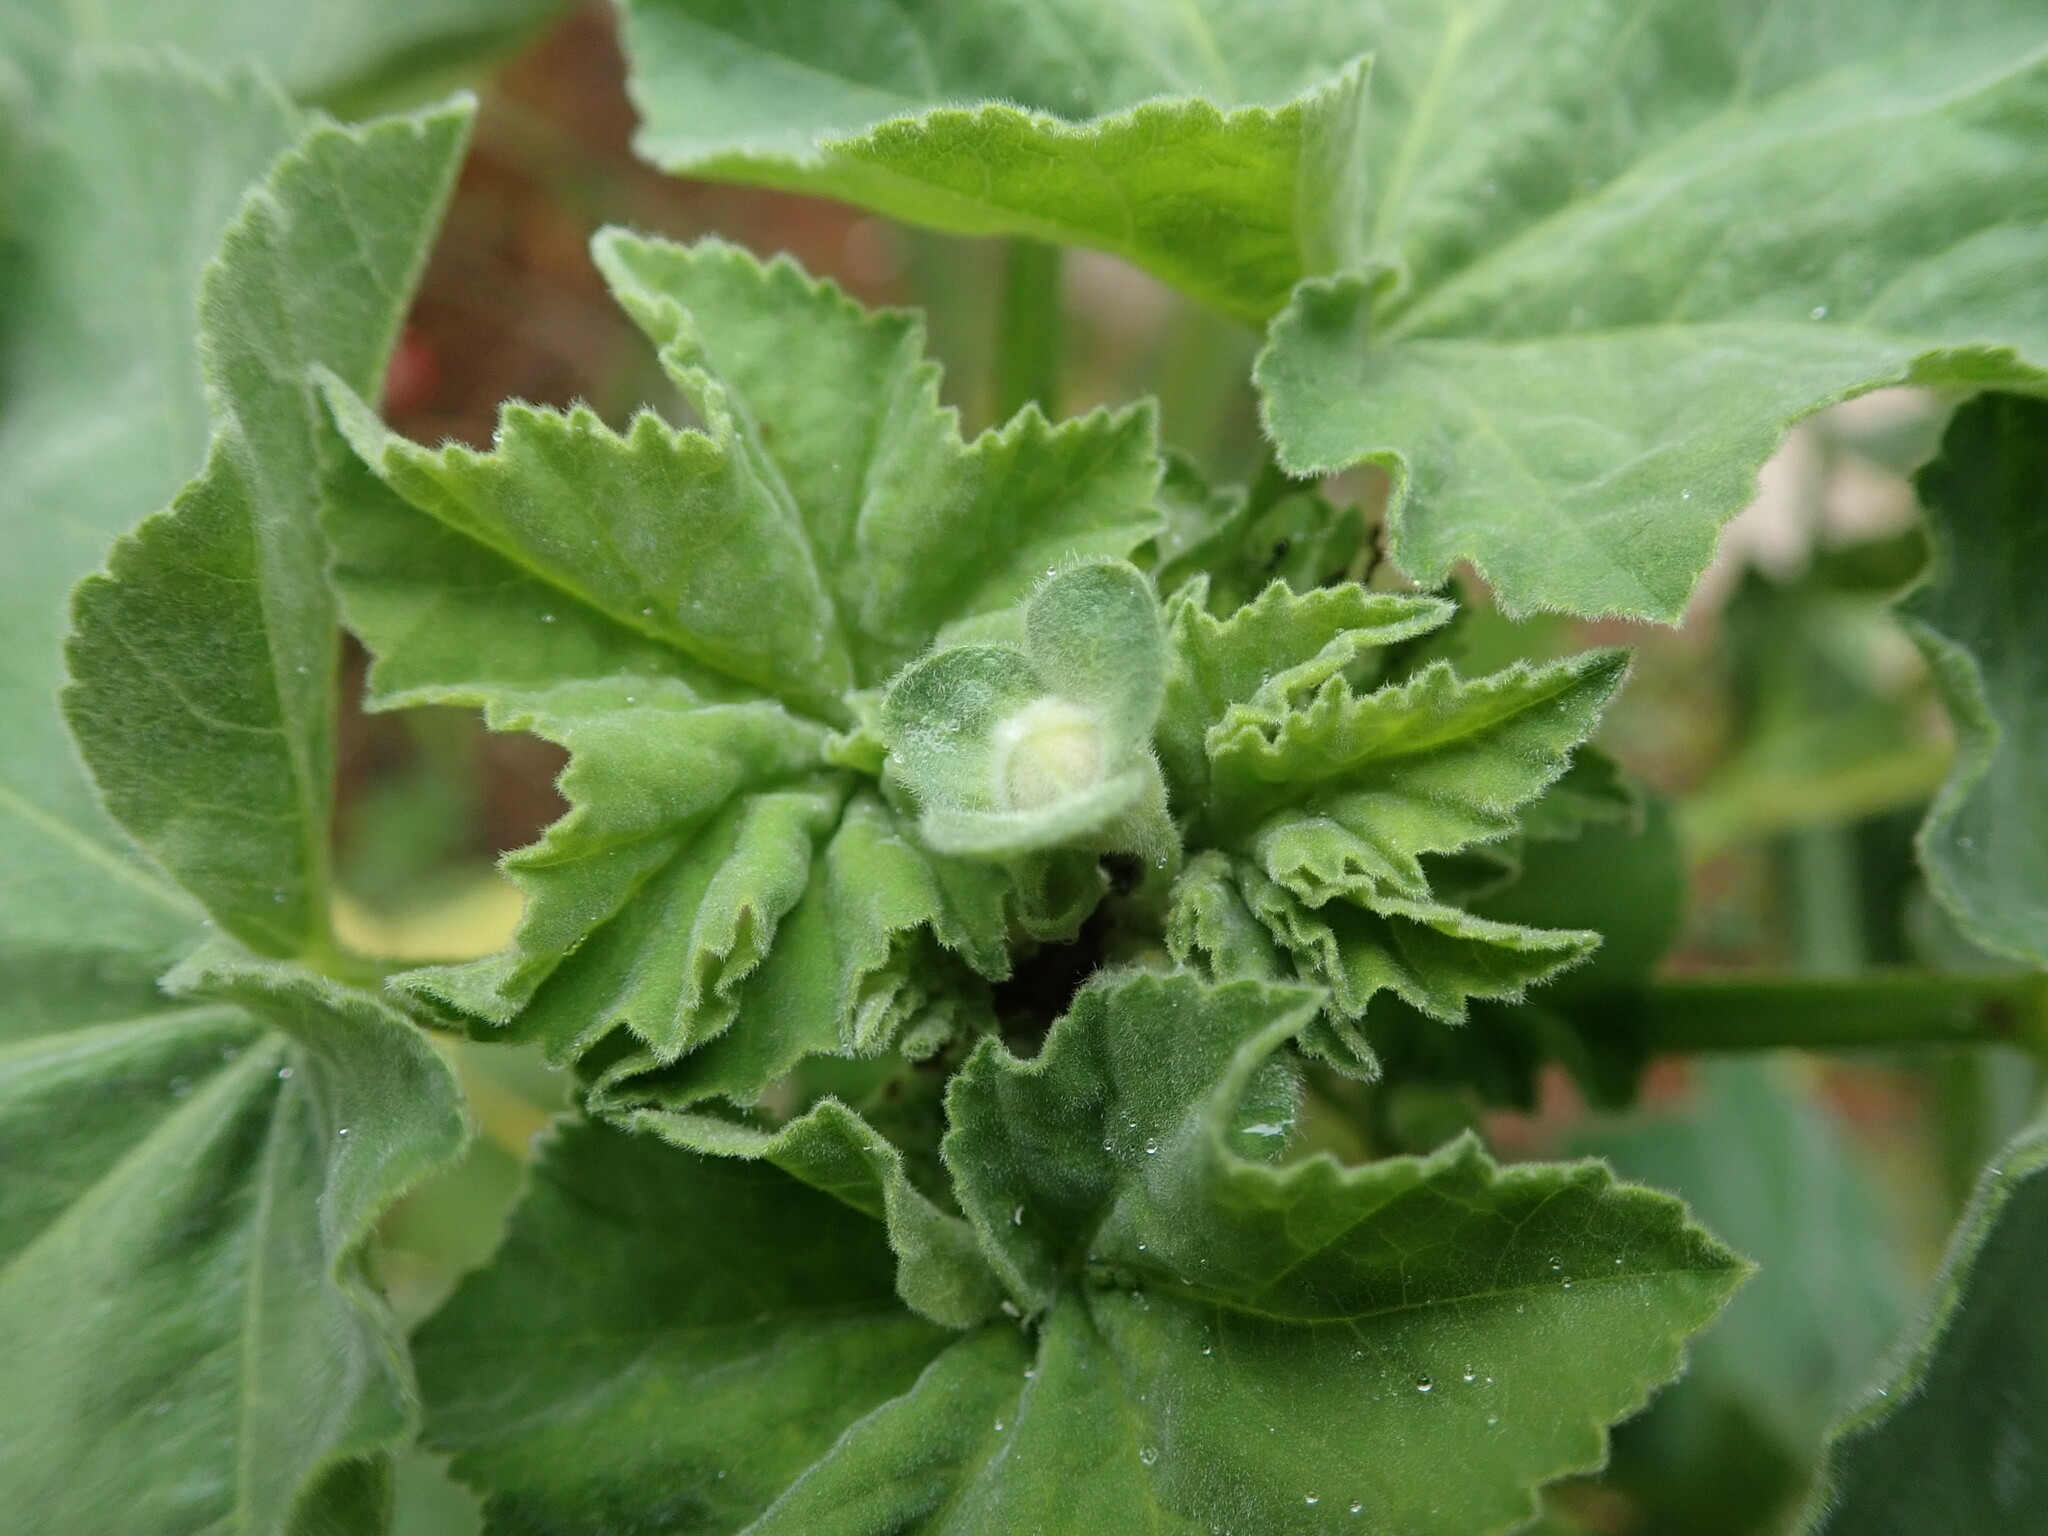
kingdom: Plantae
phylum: Tracheophyta
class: Magnoliopsida
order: Malvales
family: Malvaceae
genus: Malva
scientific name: Malva arborea
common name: Tree mallow
